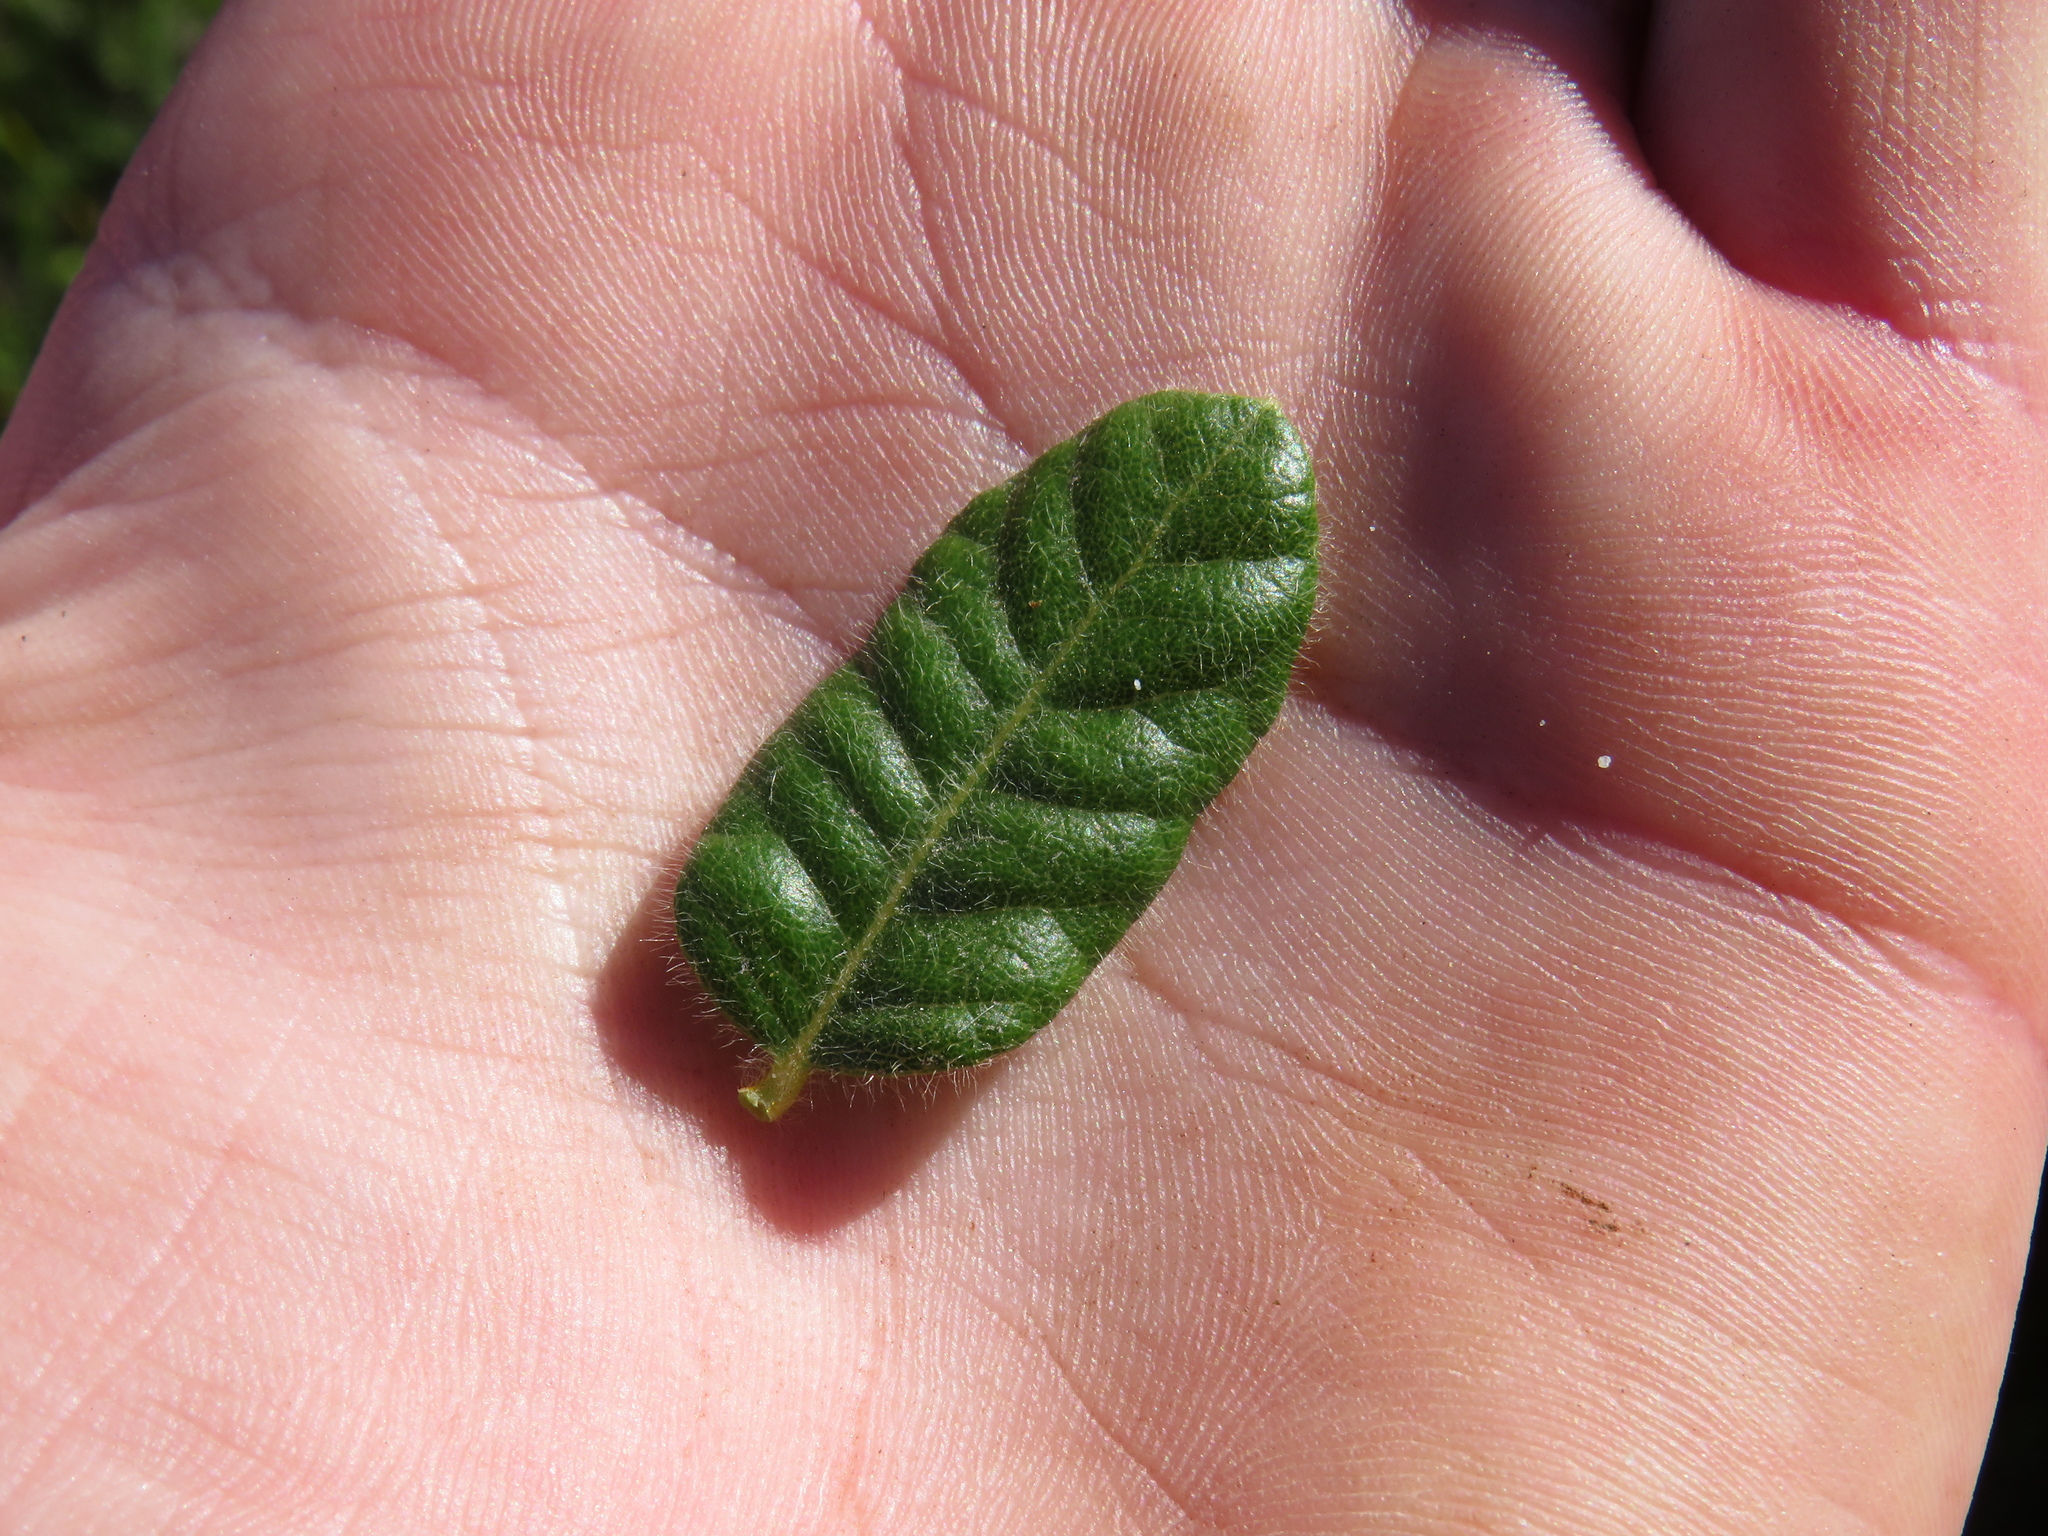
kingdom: Plantae
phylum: Tracheophyta
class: Magnoliopsida
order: Fagales
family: Myricaceae
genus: Morella
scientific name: Morella kraussiana
